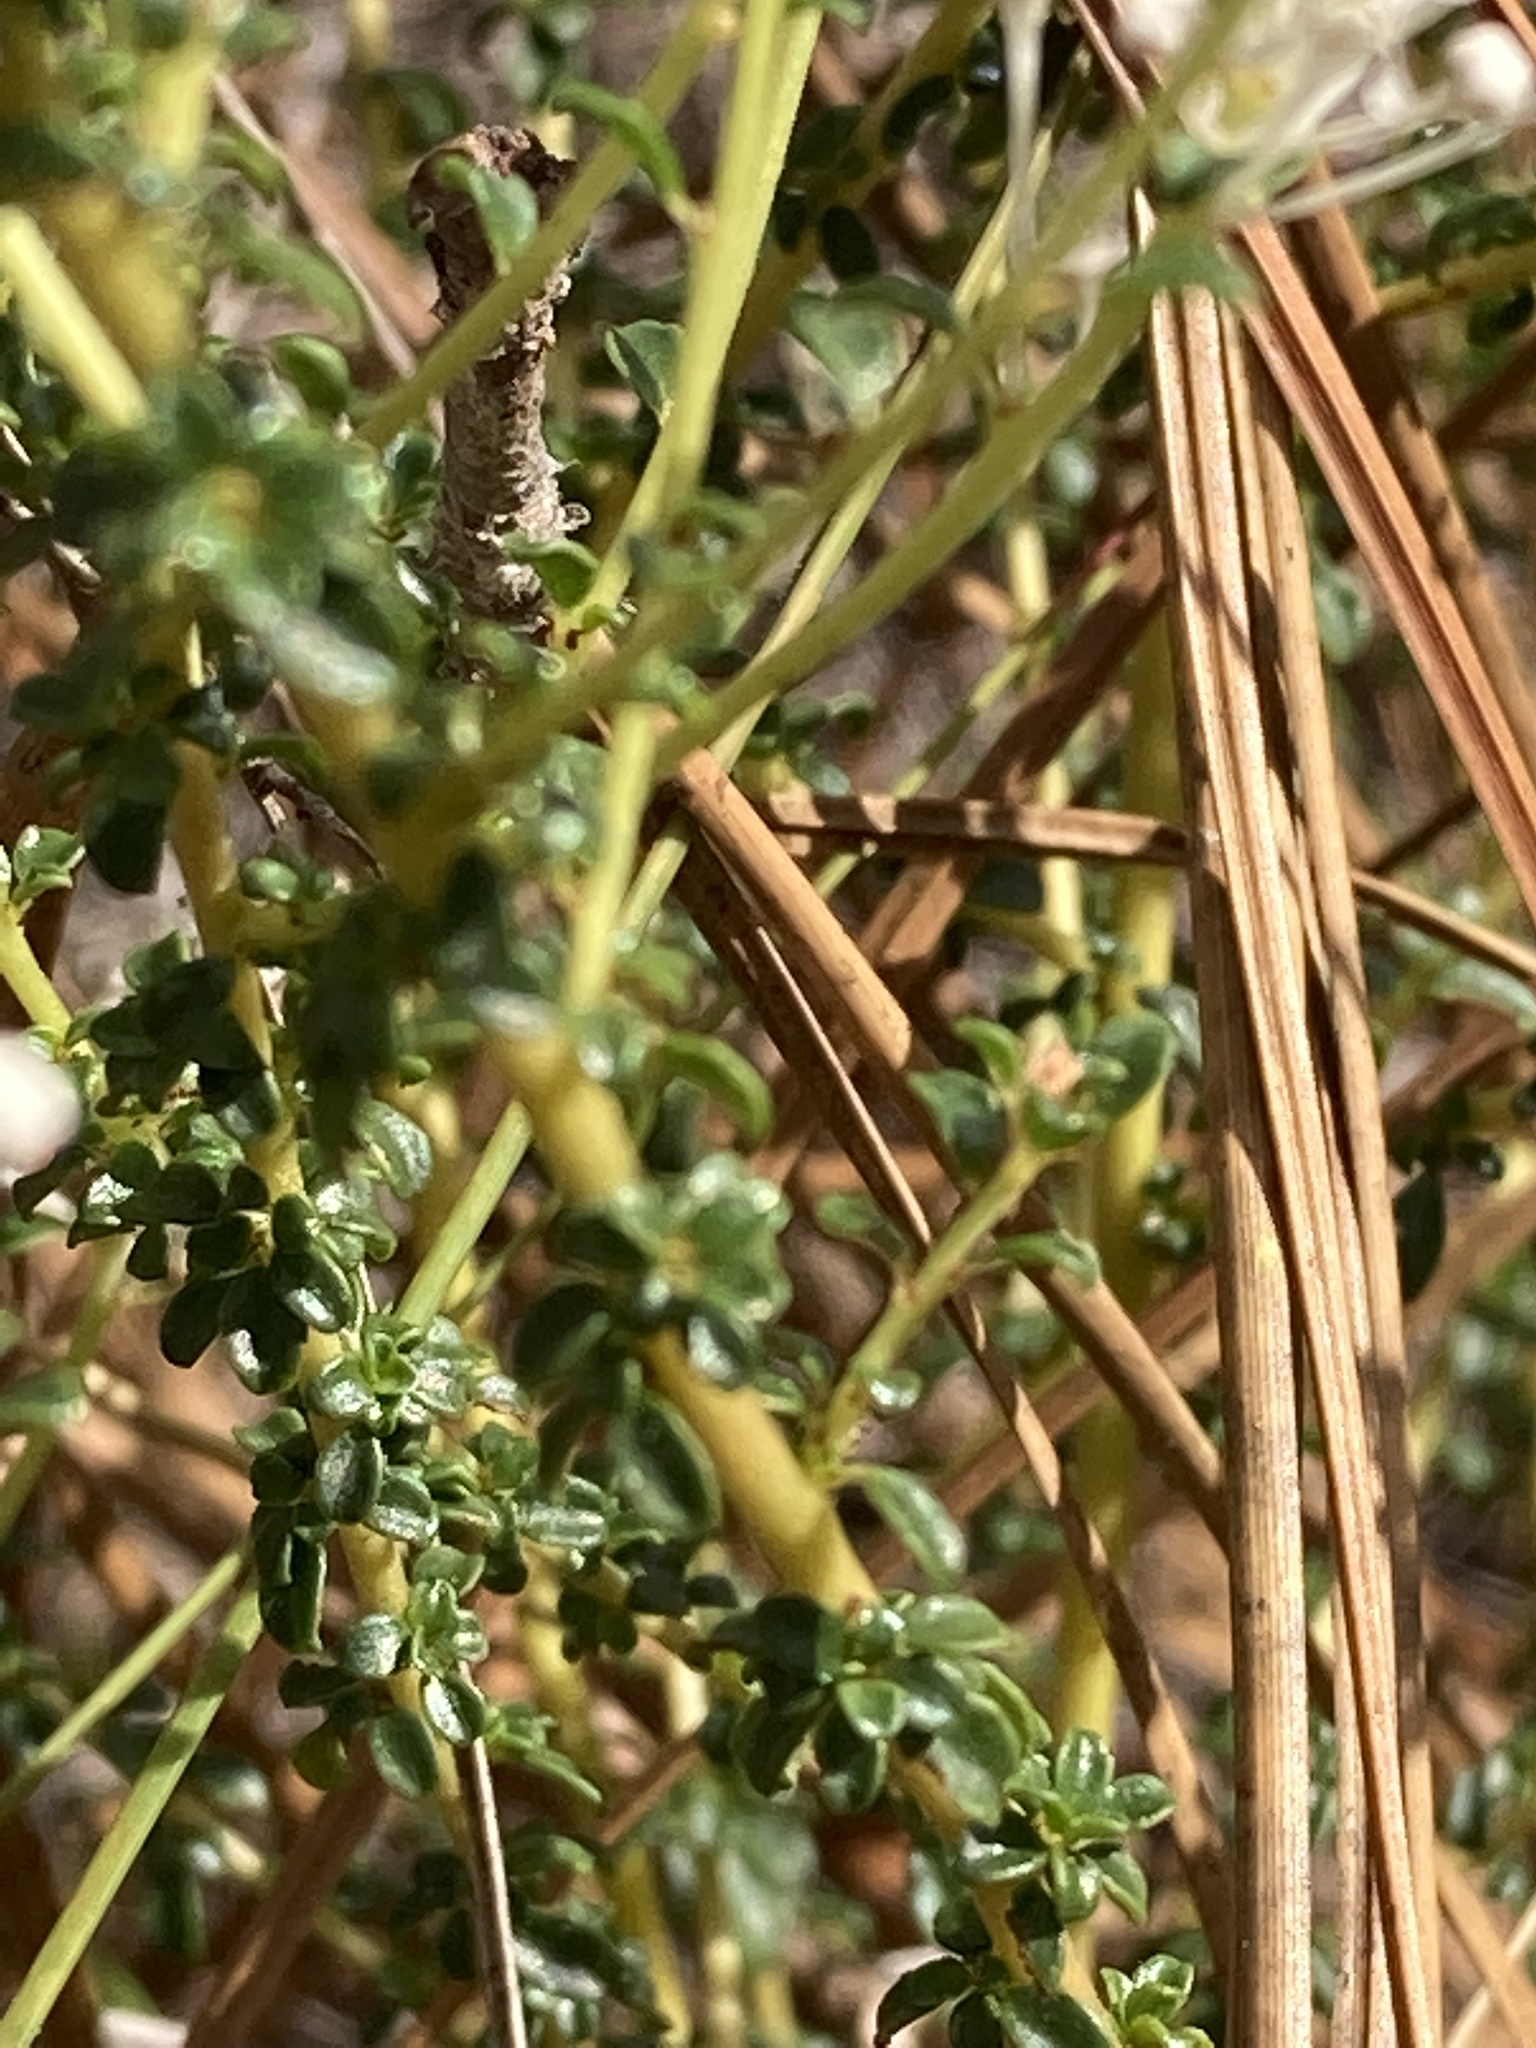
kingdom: Plantae
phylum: Tracheophyta
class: Magnoliopsida
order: Rosales
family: Rhamnaceae
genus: Ceanothus
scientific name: Ceanothus microphyllus
